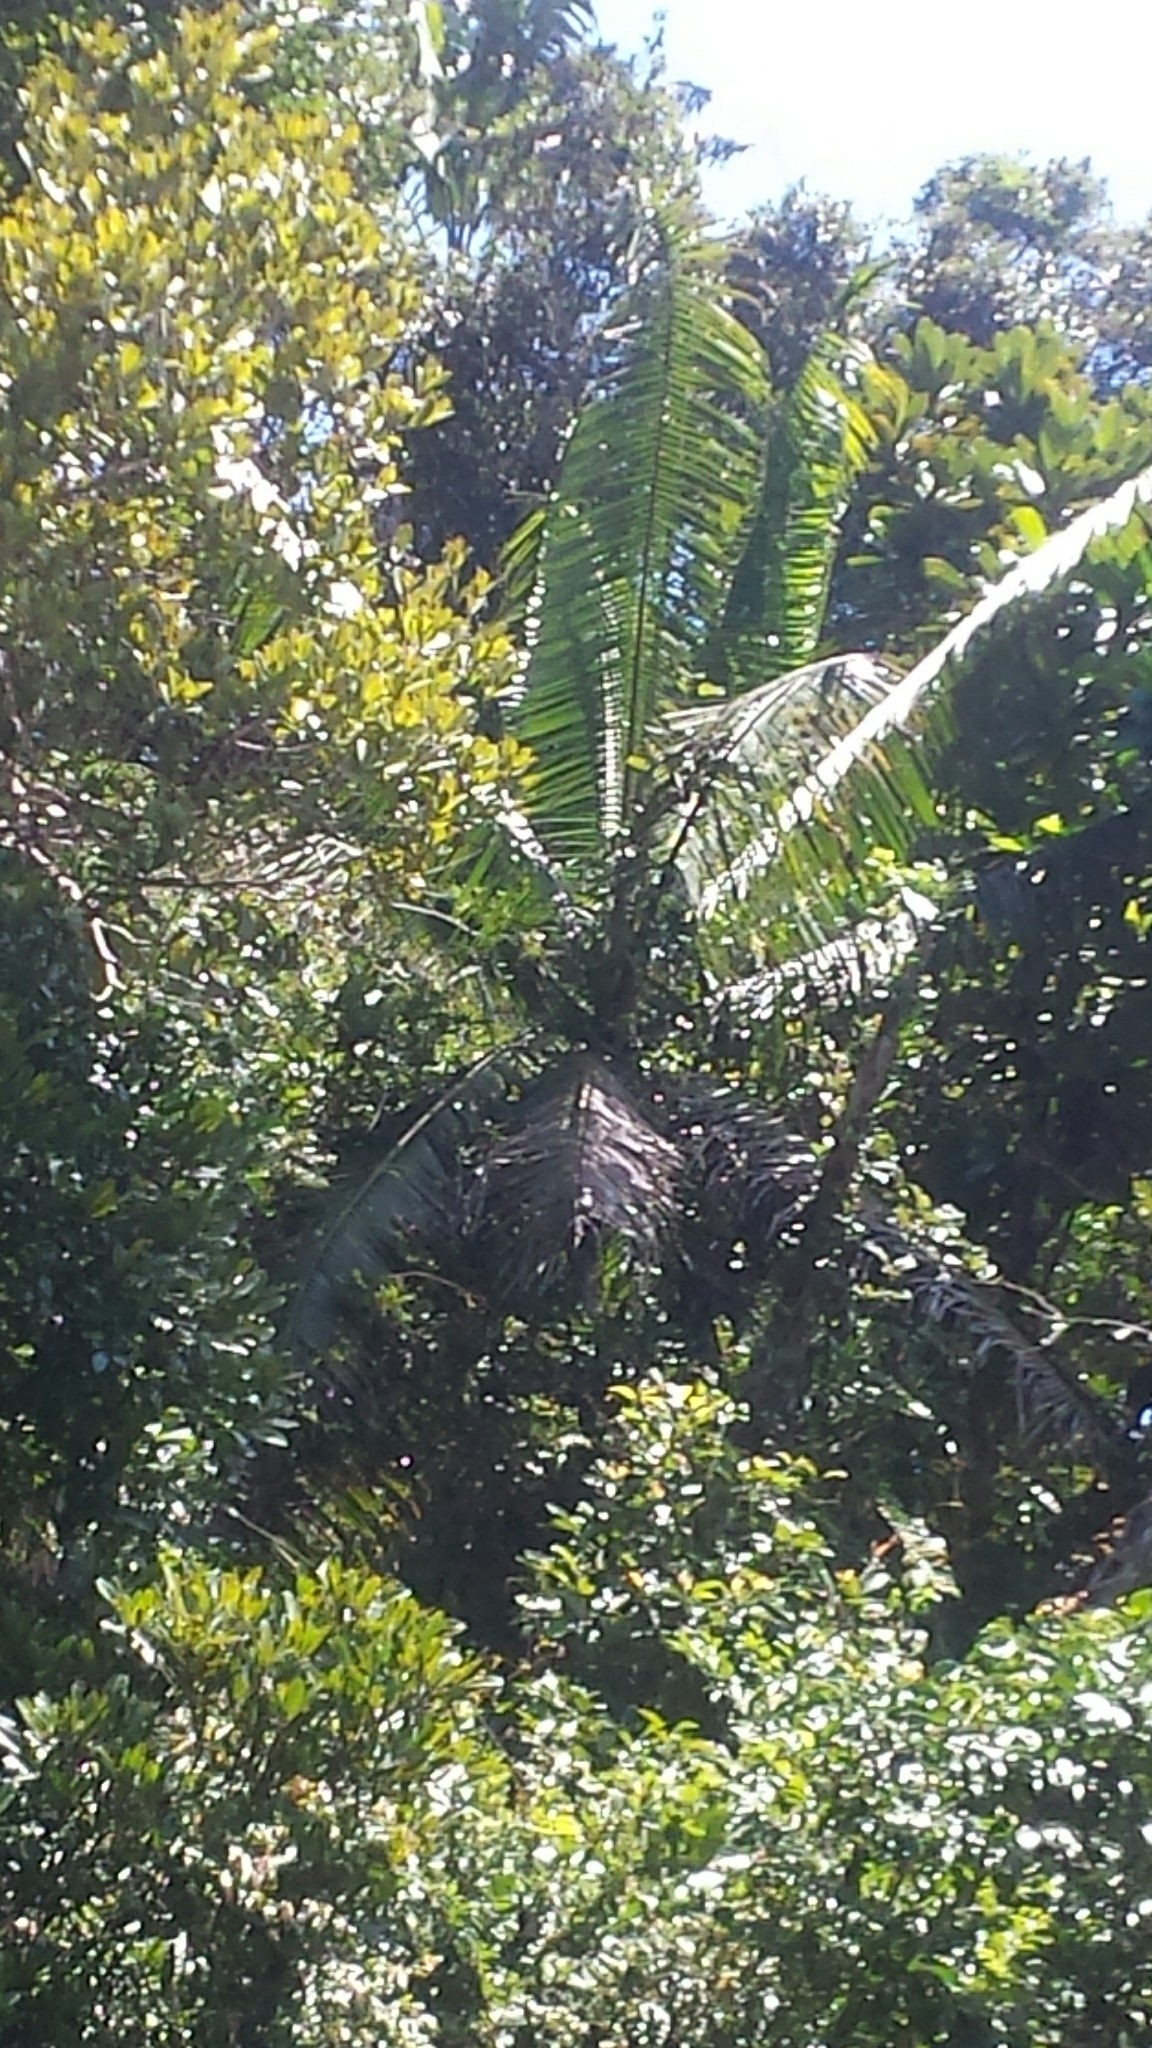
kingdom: Plantae
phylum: Tracheophyta
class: Liliopsida
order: Arecales
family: Arecaceae
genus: Dypsis
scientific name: Dypsis lastelliana
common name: Redneck palm
